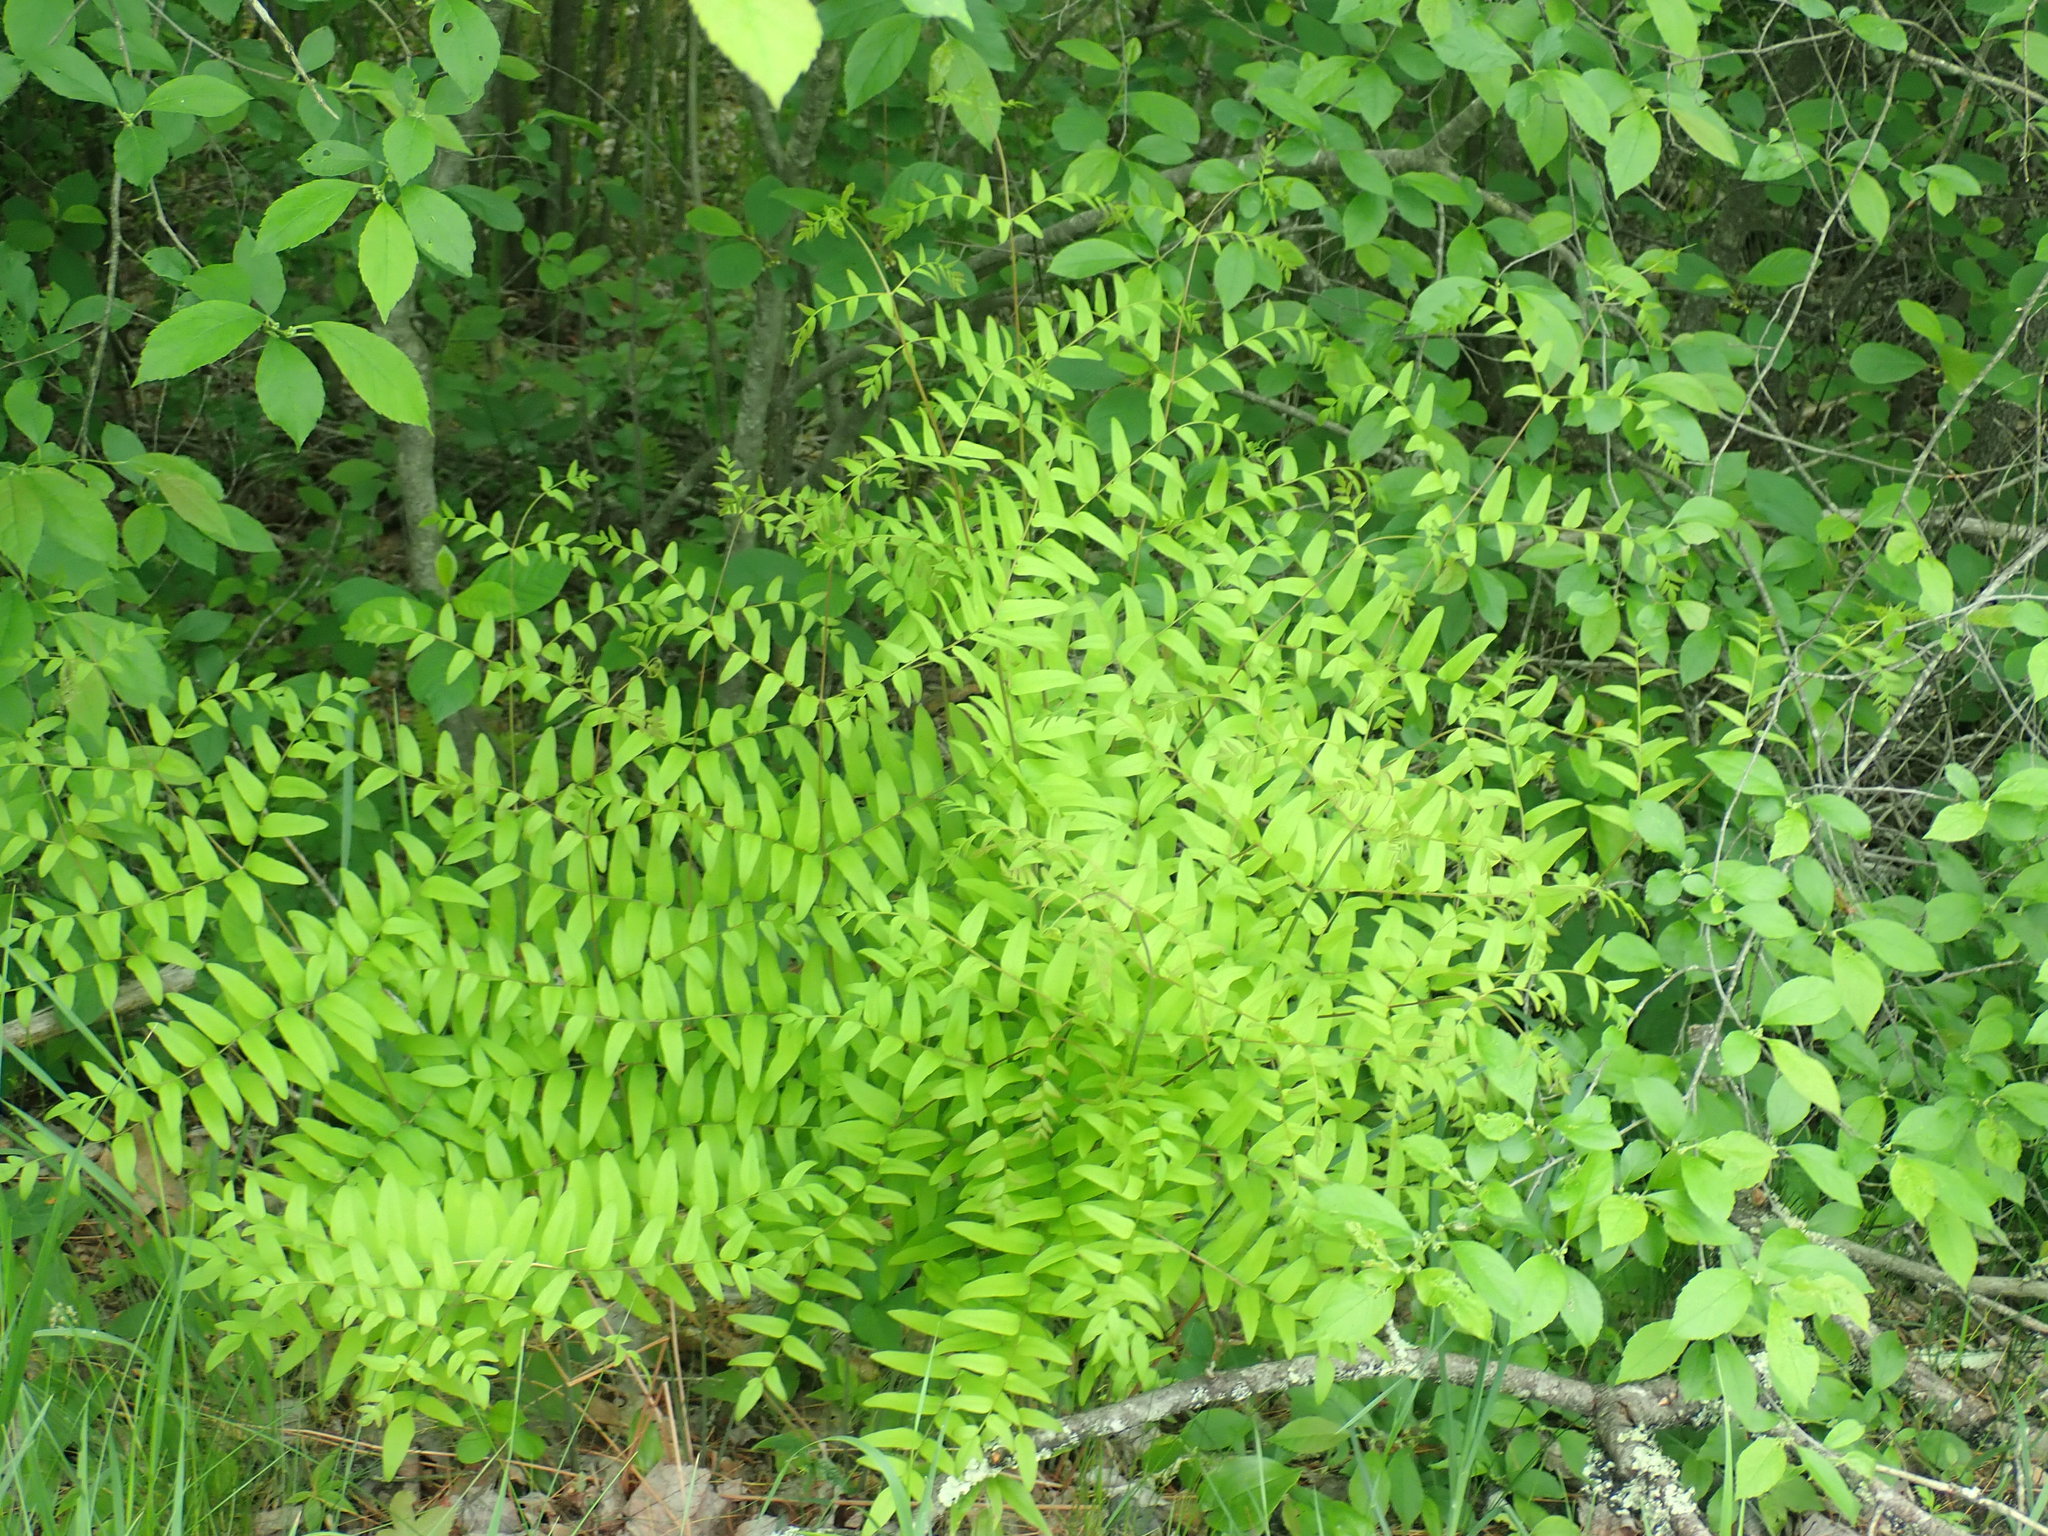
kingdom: Plantae
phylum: Tracheophyta
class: Polypodiopsida
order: Osmundales
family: Osmundaceae
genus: Osmunda
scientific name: Osmunda spectabilis
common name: American royal fern
